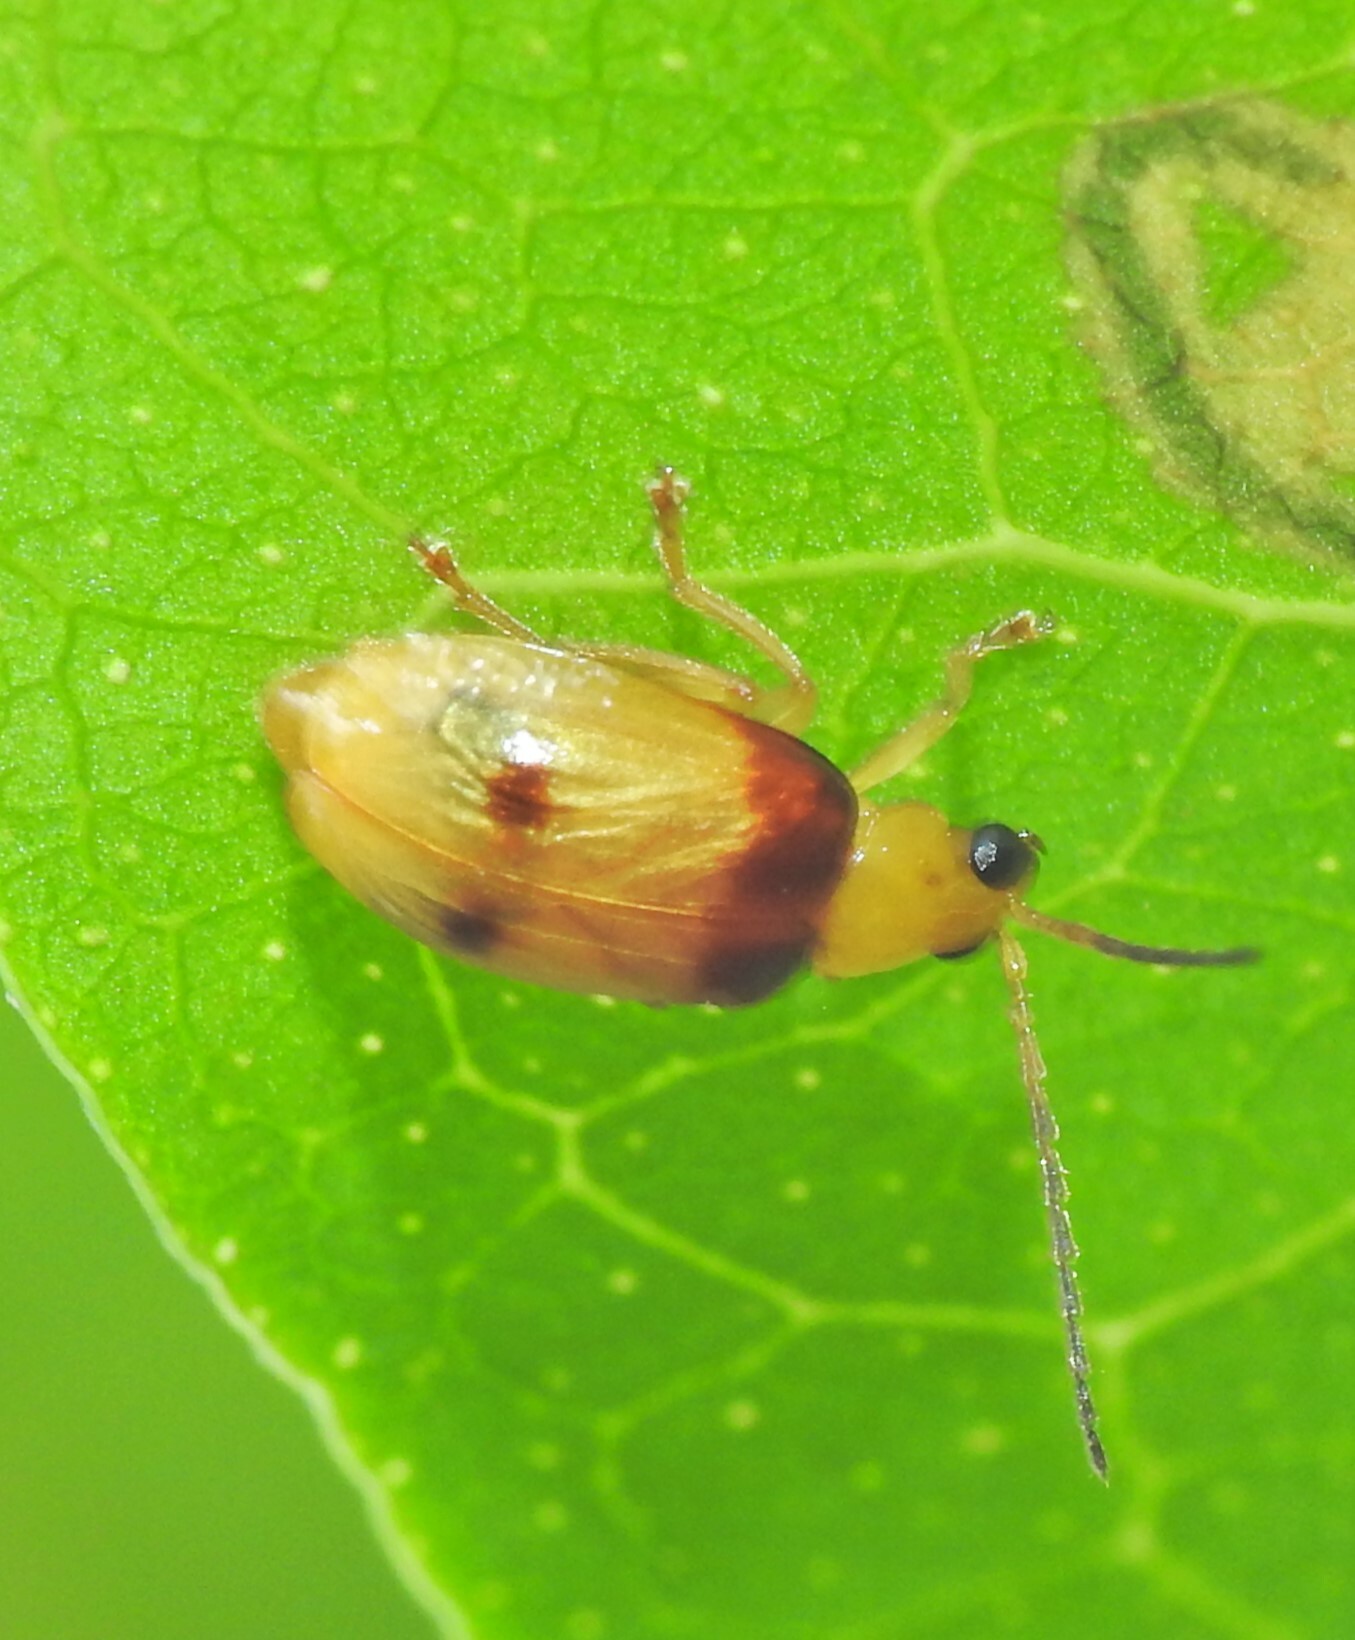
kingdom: Animalia
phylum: Arthropoda
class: Insecta
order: Coleoptera
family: Chrysomelidae
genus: Monolepta
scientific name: Monolepta
